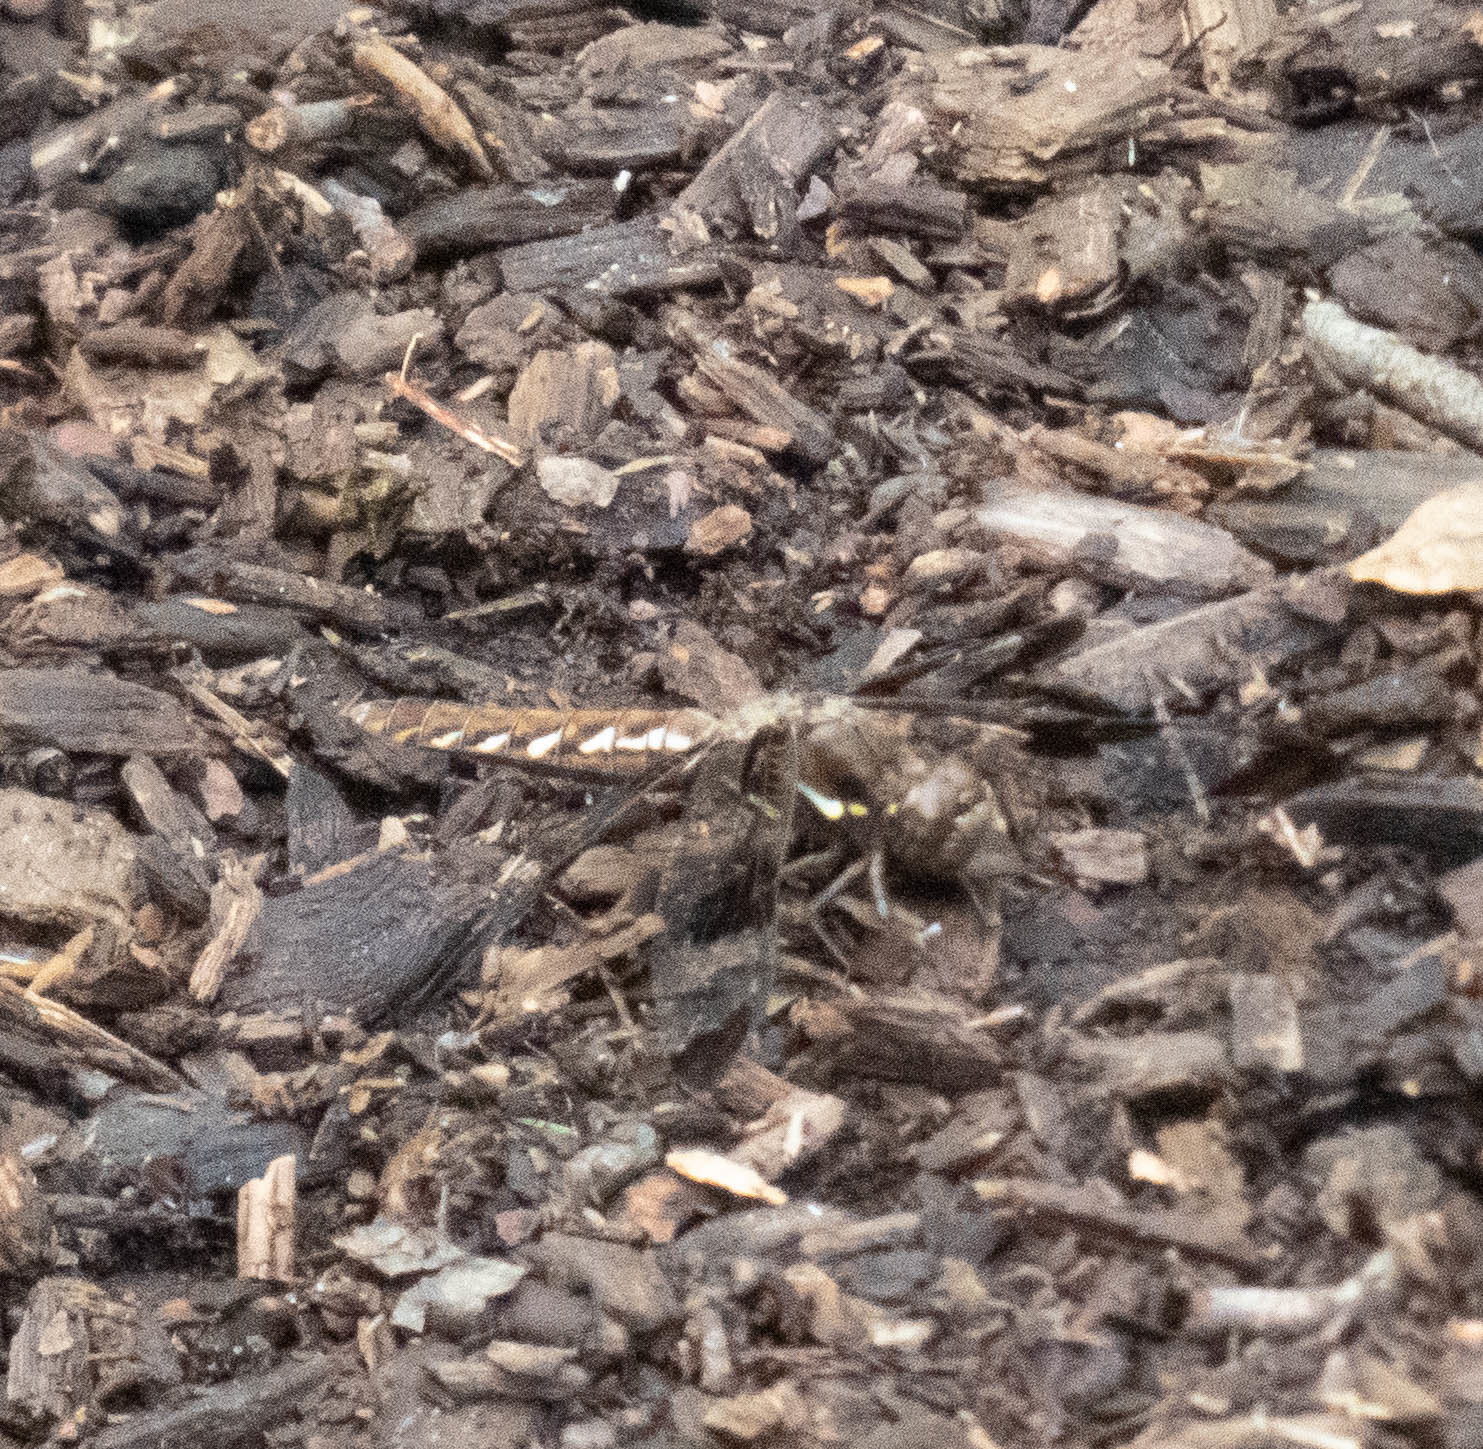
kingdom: Animalia
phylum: Arthropoda
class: Insecta
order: Odonata
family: Libellulidae
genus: Plathemis
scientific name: Plathemis lydia
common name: Common whitetail
